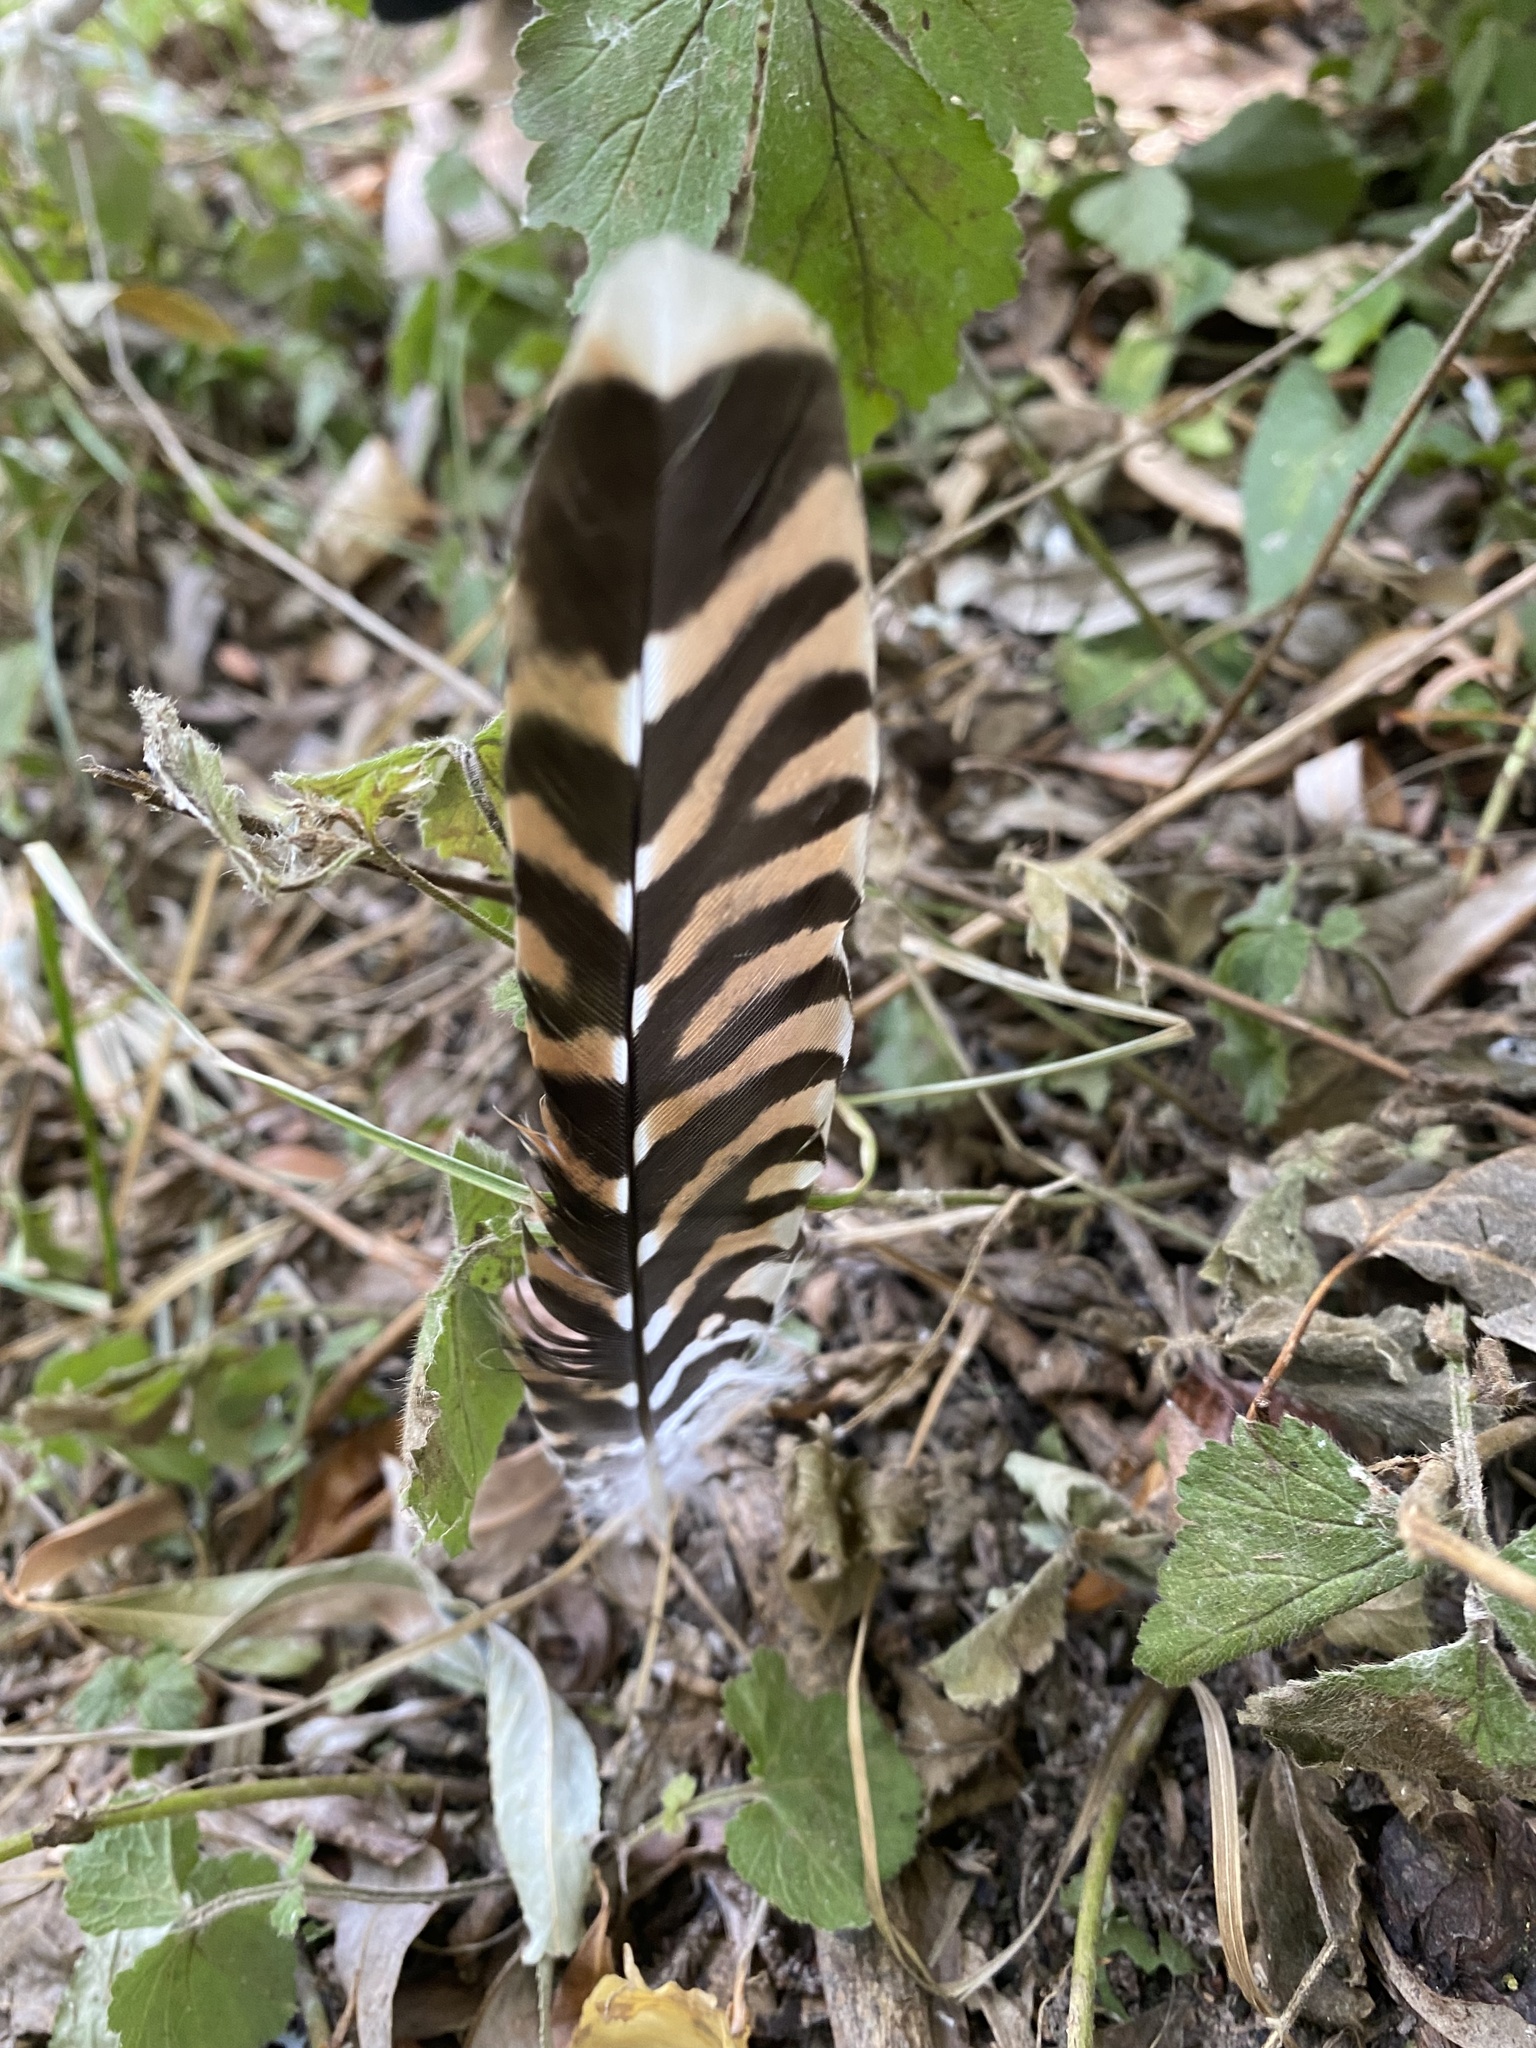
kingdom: Animalia
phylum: Chordata
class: Aves
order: Cuculiformes
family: Cuculidae
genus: Cuculus
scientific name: Cuculus canorus
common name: Common cuckoo
